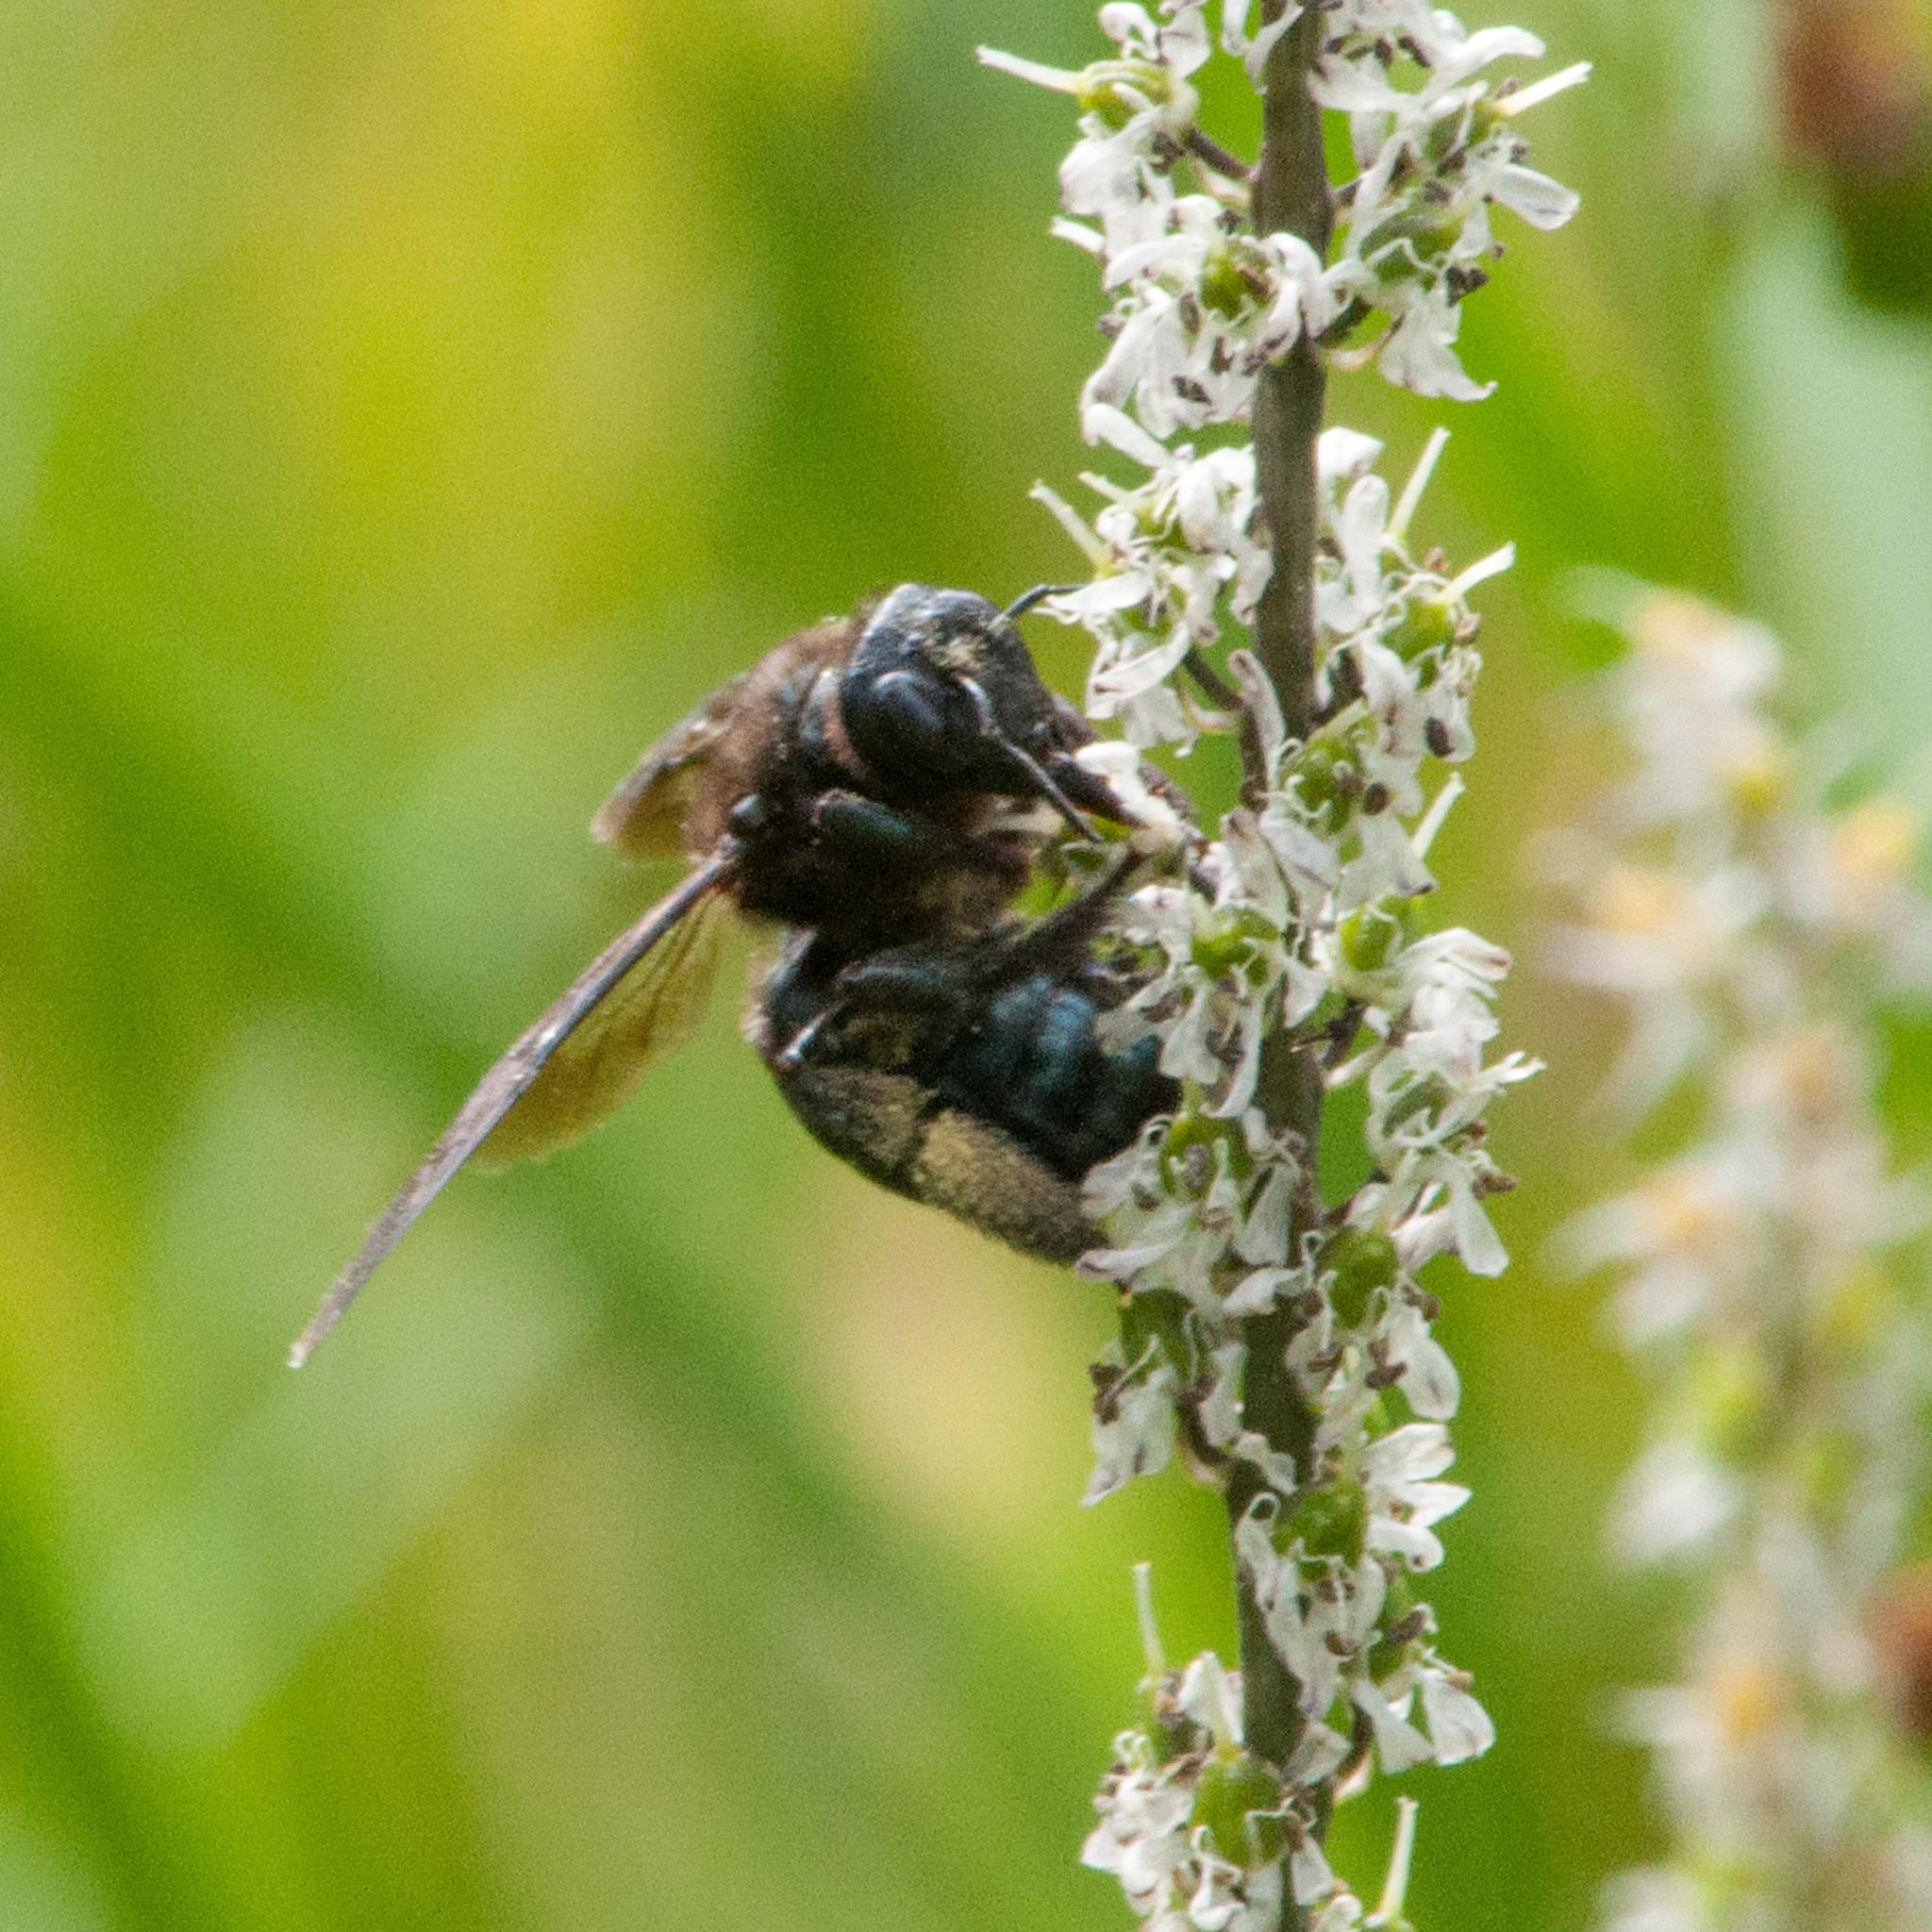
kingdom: Animalia
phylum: Arthropoda
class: Insecta
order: Hymenoptera
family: Apidae
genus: Xylocopa
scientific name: Xylocopa californica
